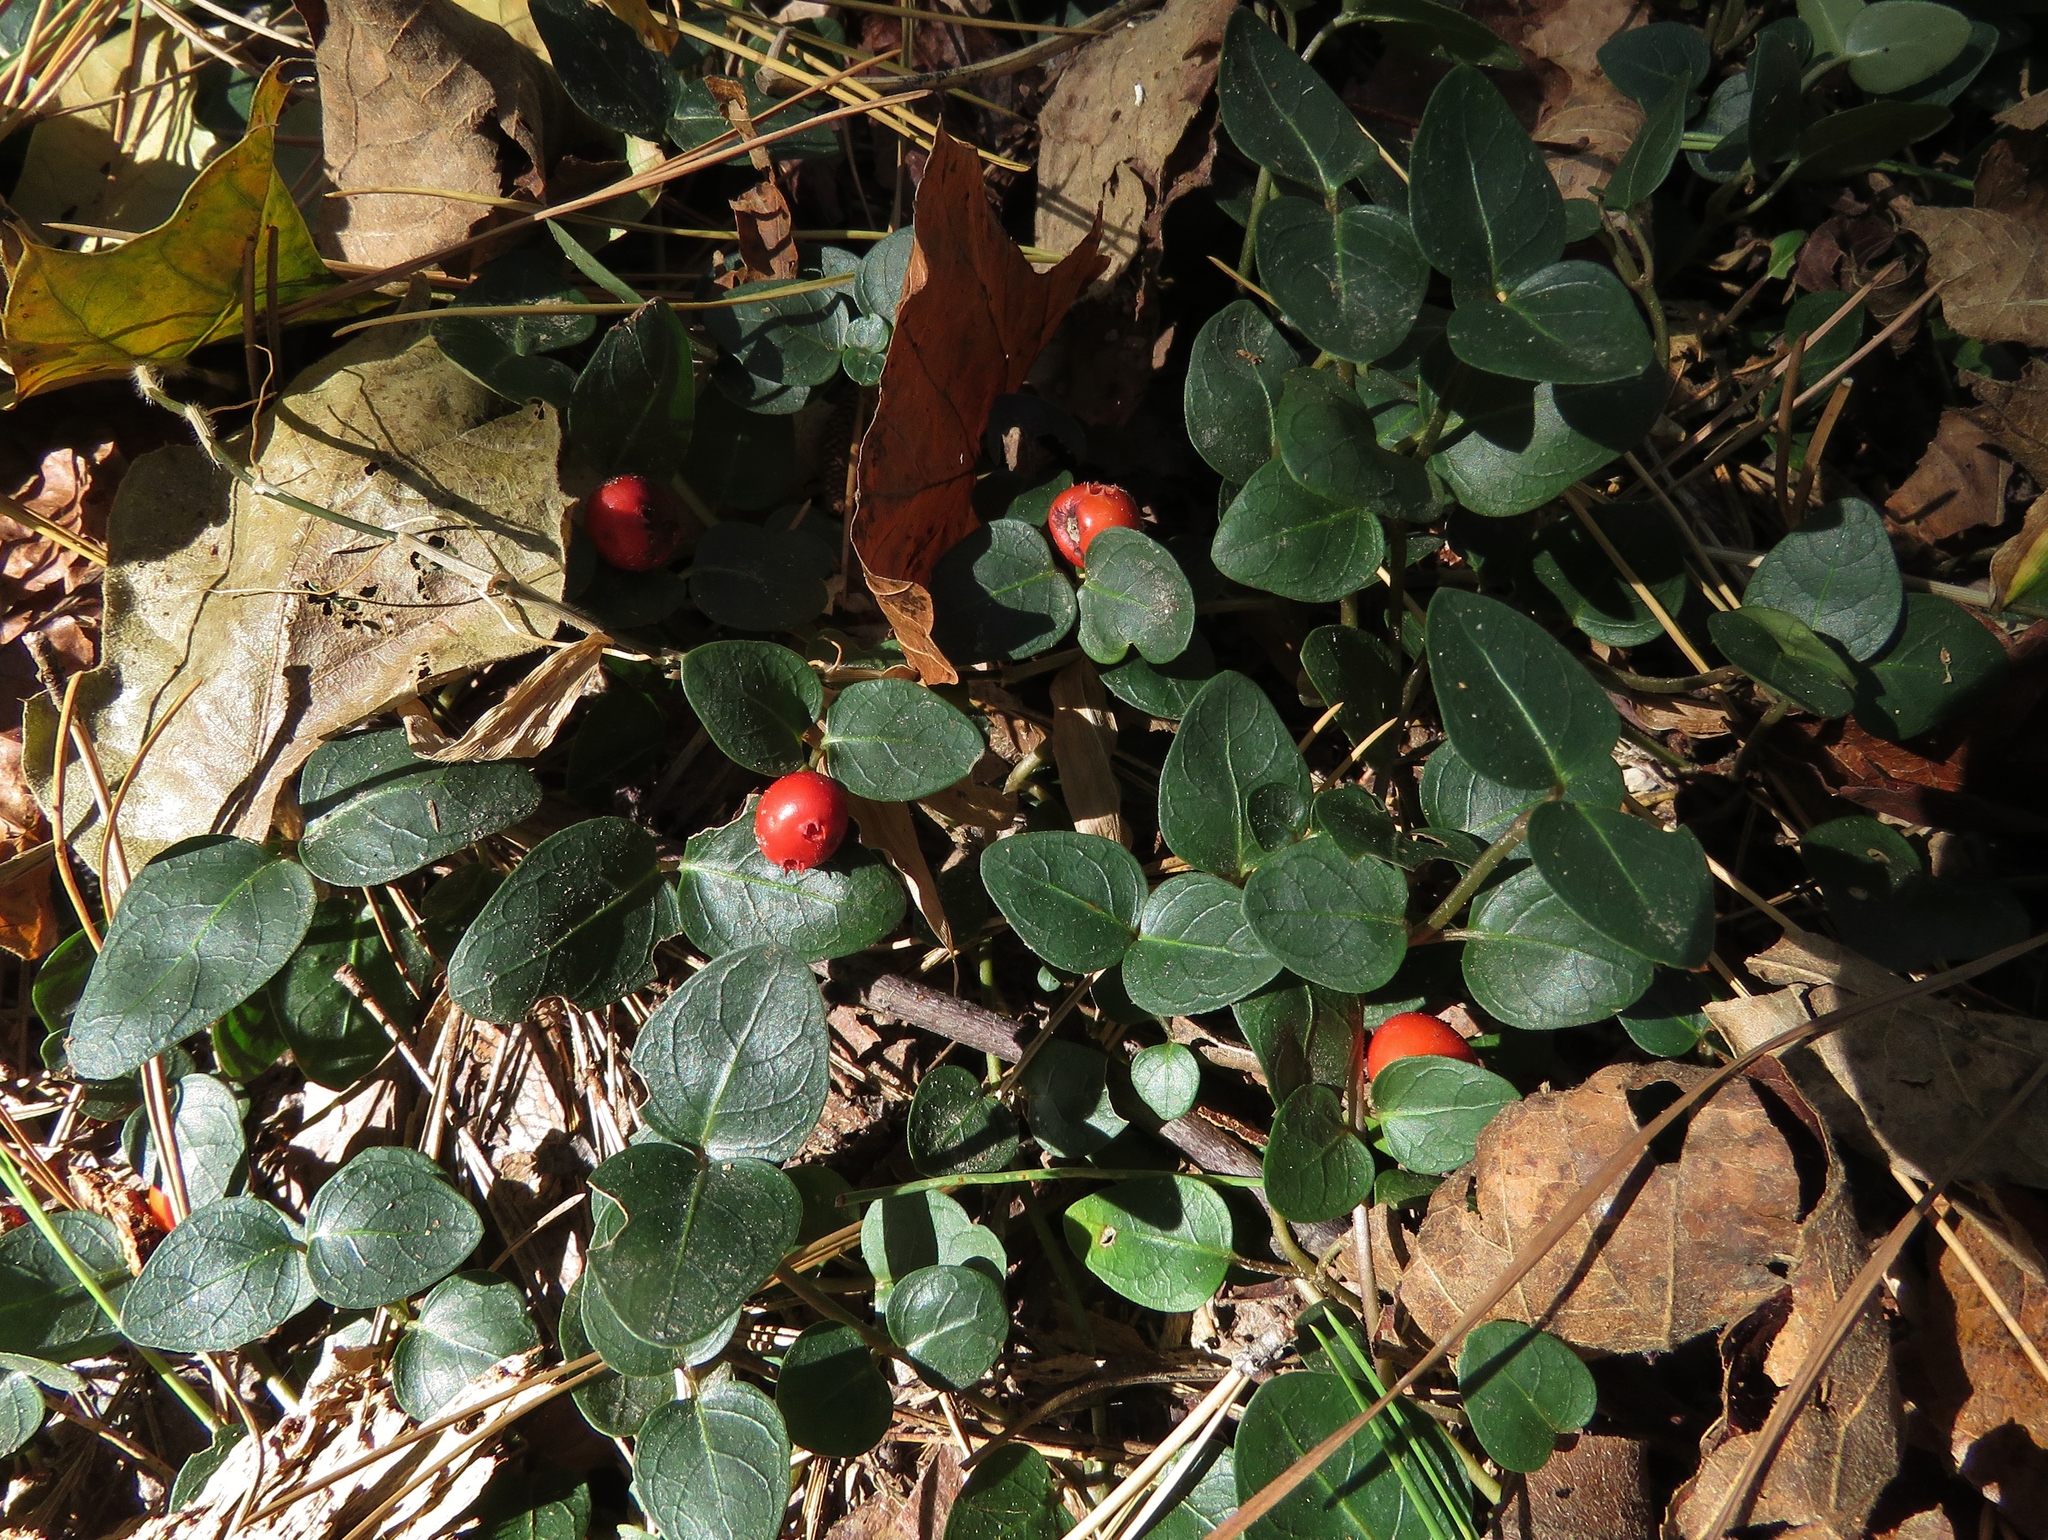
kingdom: Plantae
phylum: Tracheophyta
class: Magnoliopsida
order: Gentianales
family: Rubiaceae
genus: Mitchella
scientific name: Mitchella repens
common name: Partridge-berry
